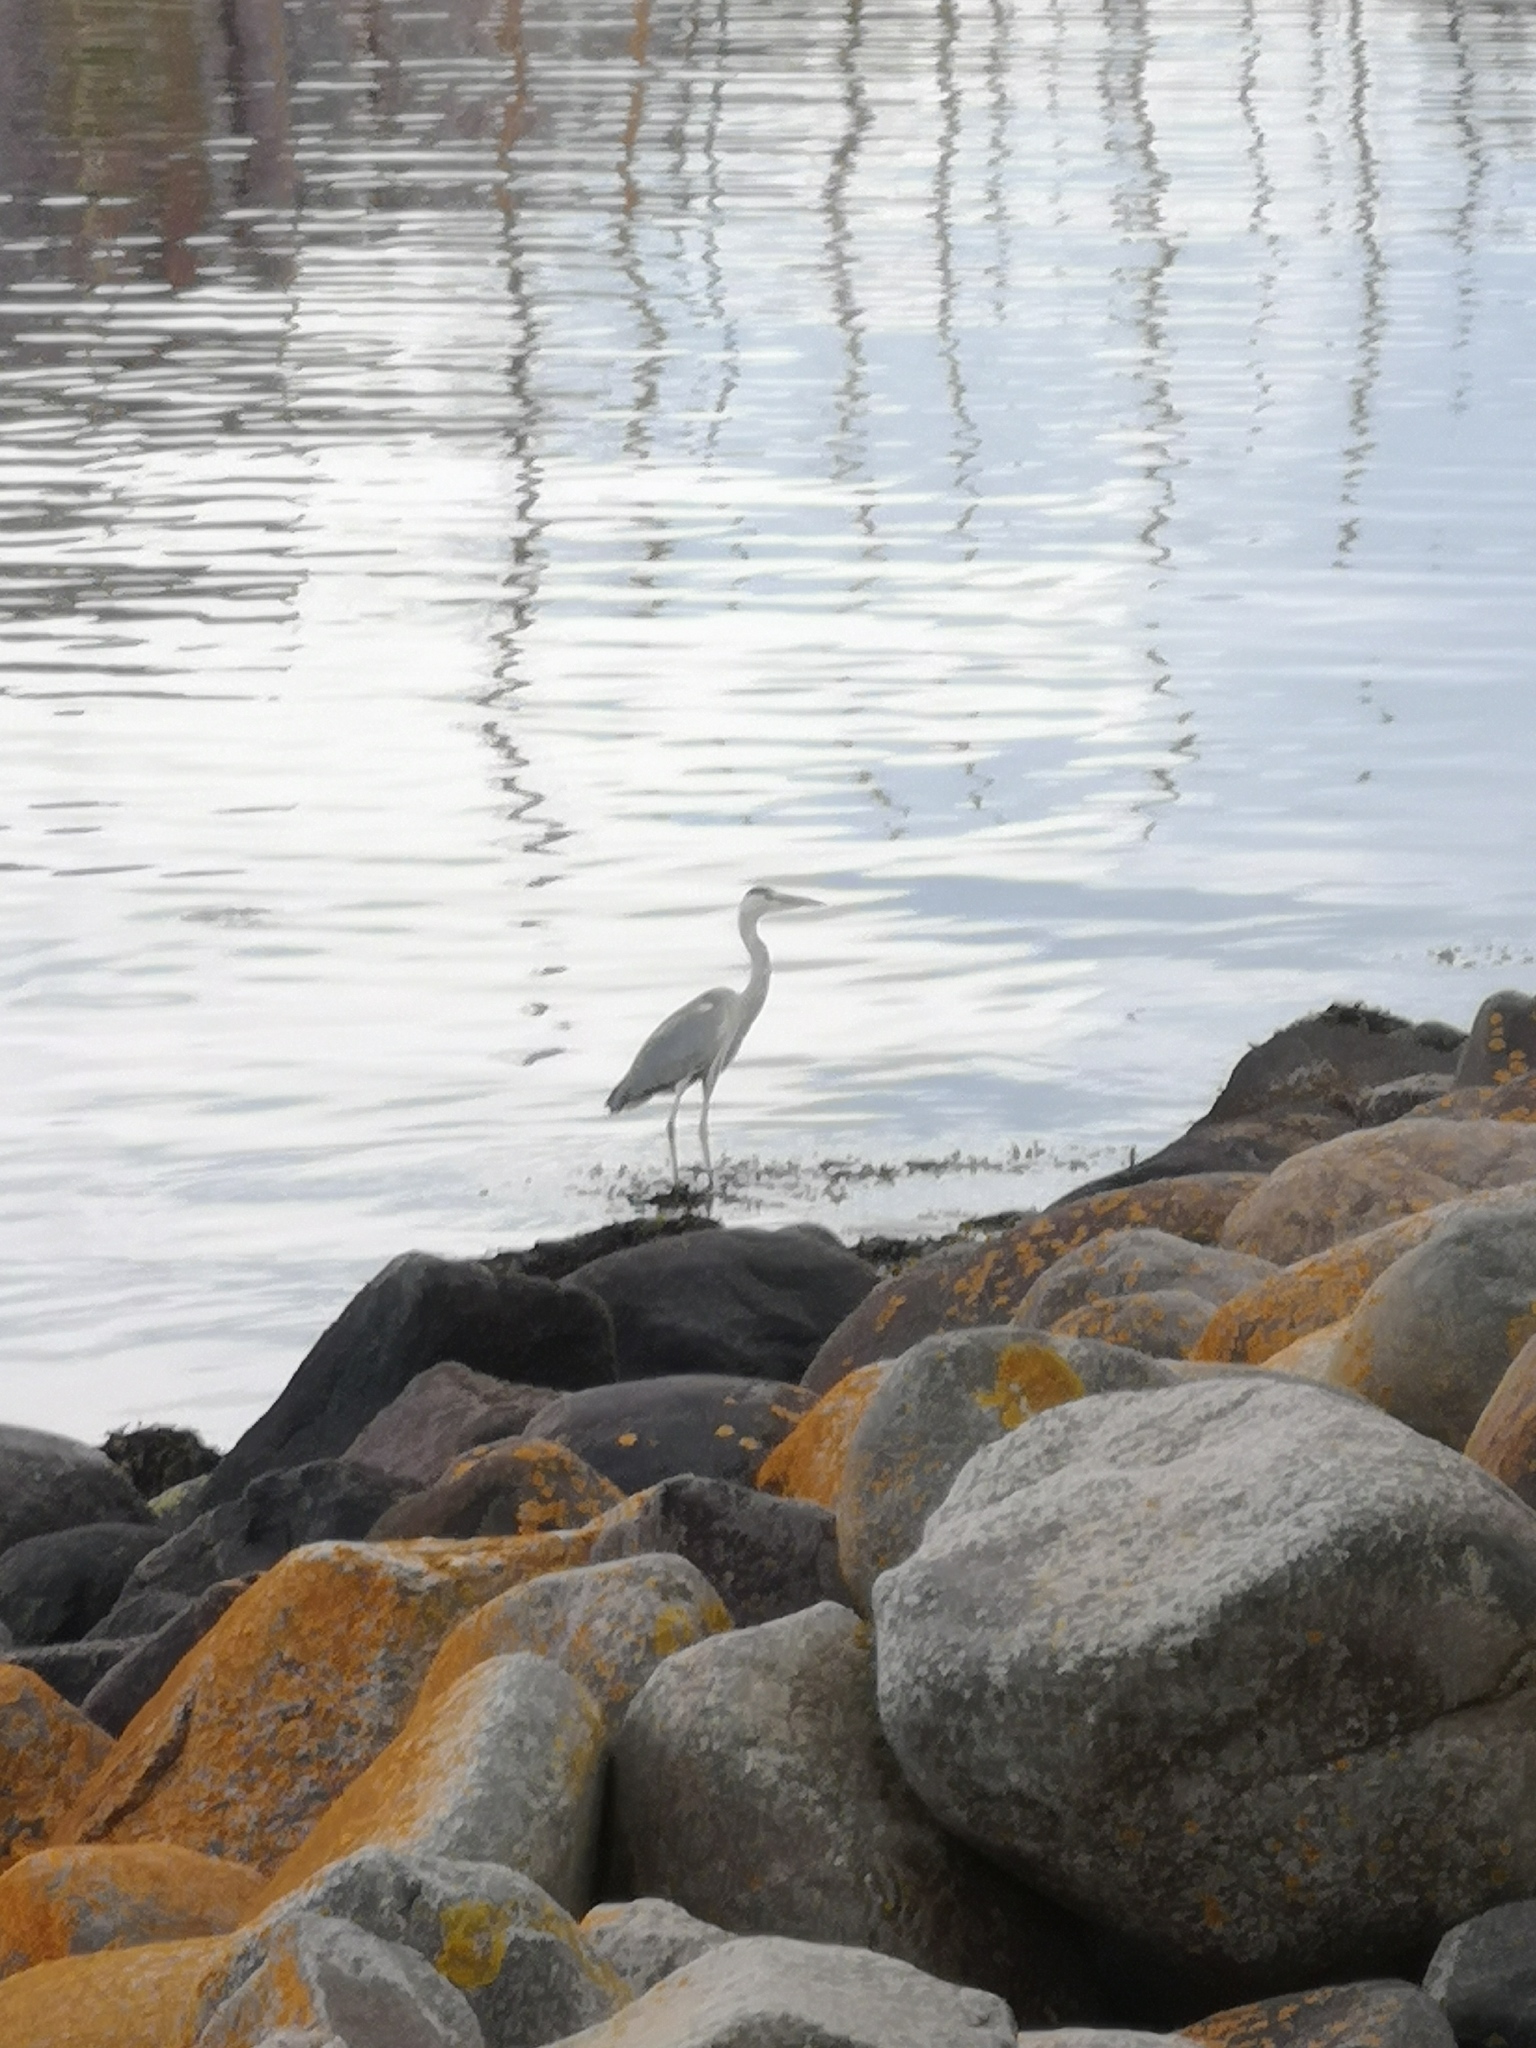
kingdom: Animalia
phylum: Chordata
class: Aves
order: Pelecaniformes
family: Ardeidae
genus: Ardea
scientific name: Ardea cinerea
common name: Grey heron
